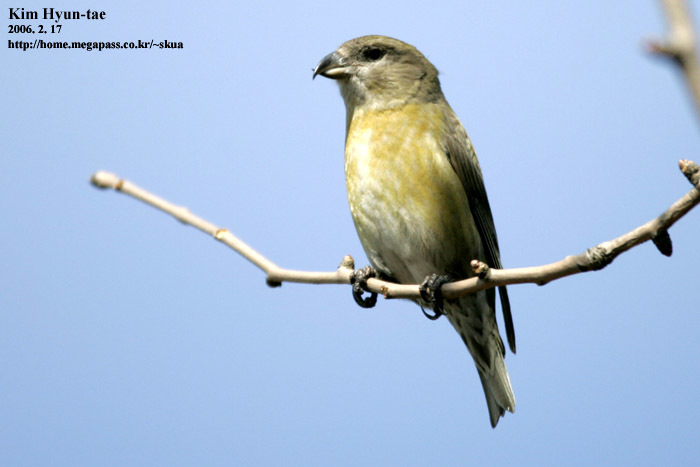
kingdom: Animalia
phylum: Chordata
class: Aves
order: Passeriformes
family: Fringillidae
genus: Loxia
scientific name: Loxia curvirostra
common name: Red crossbill
